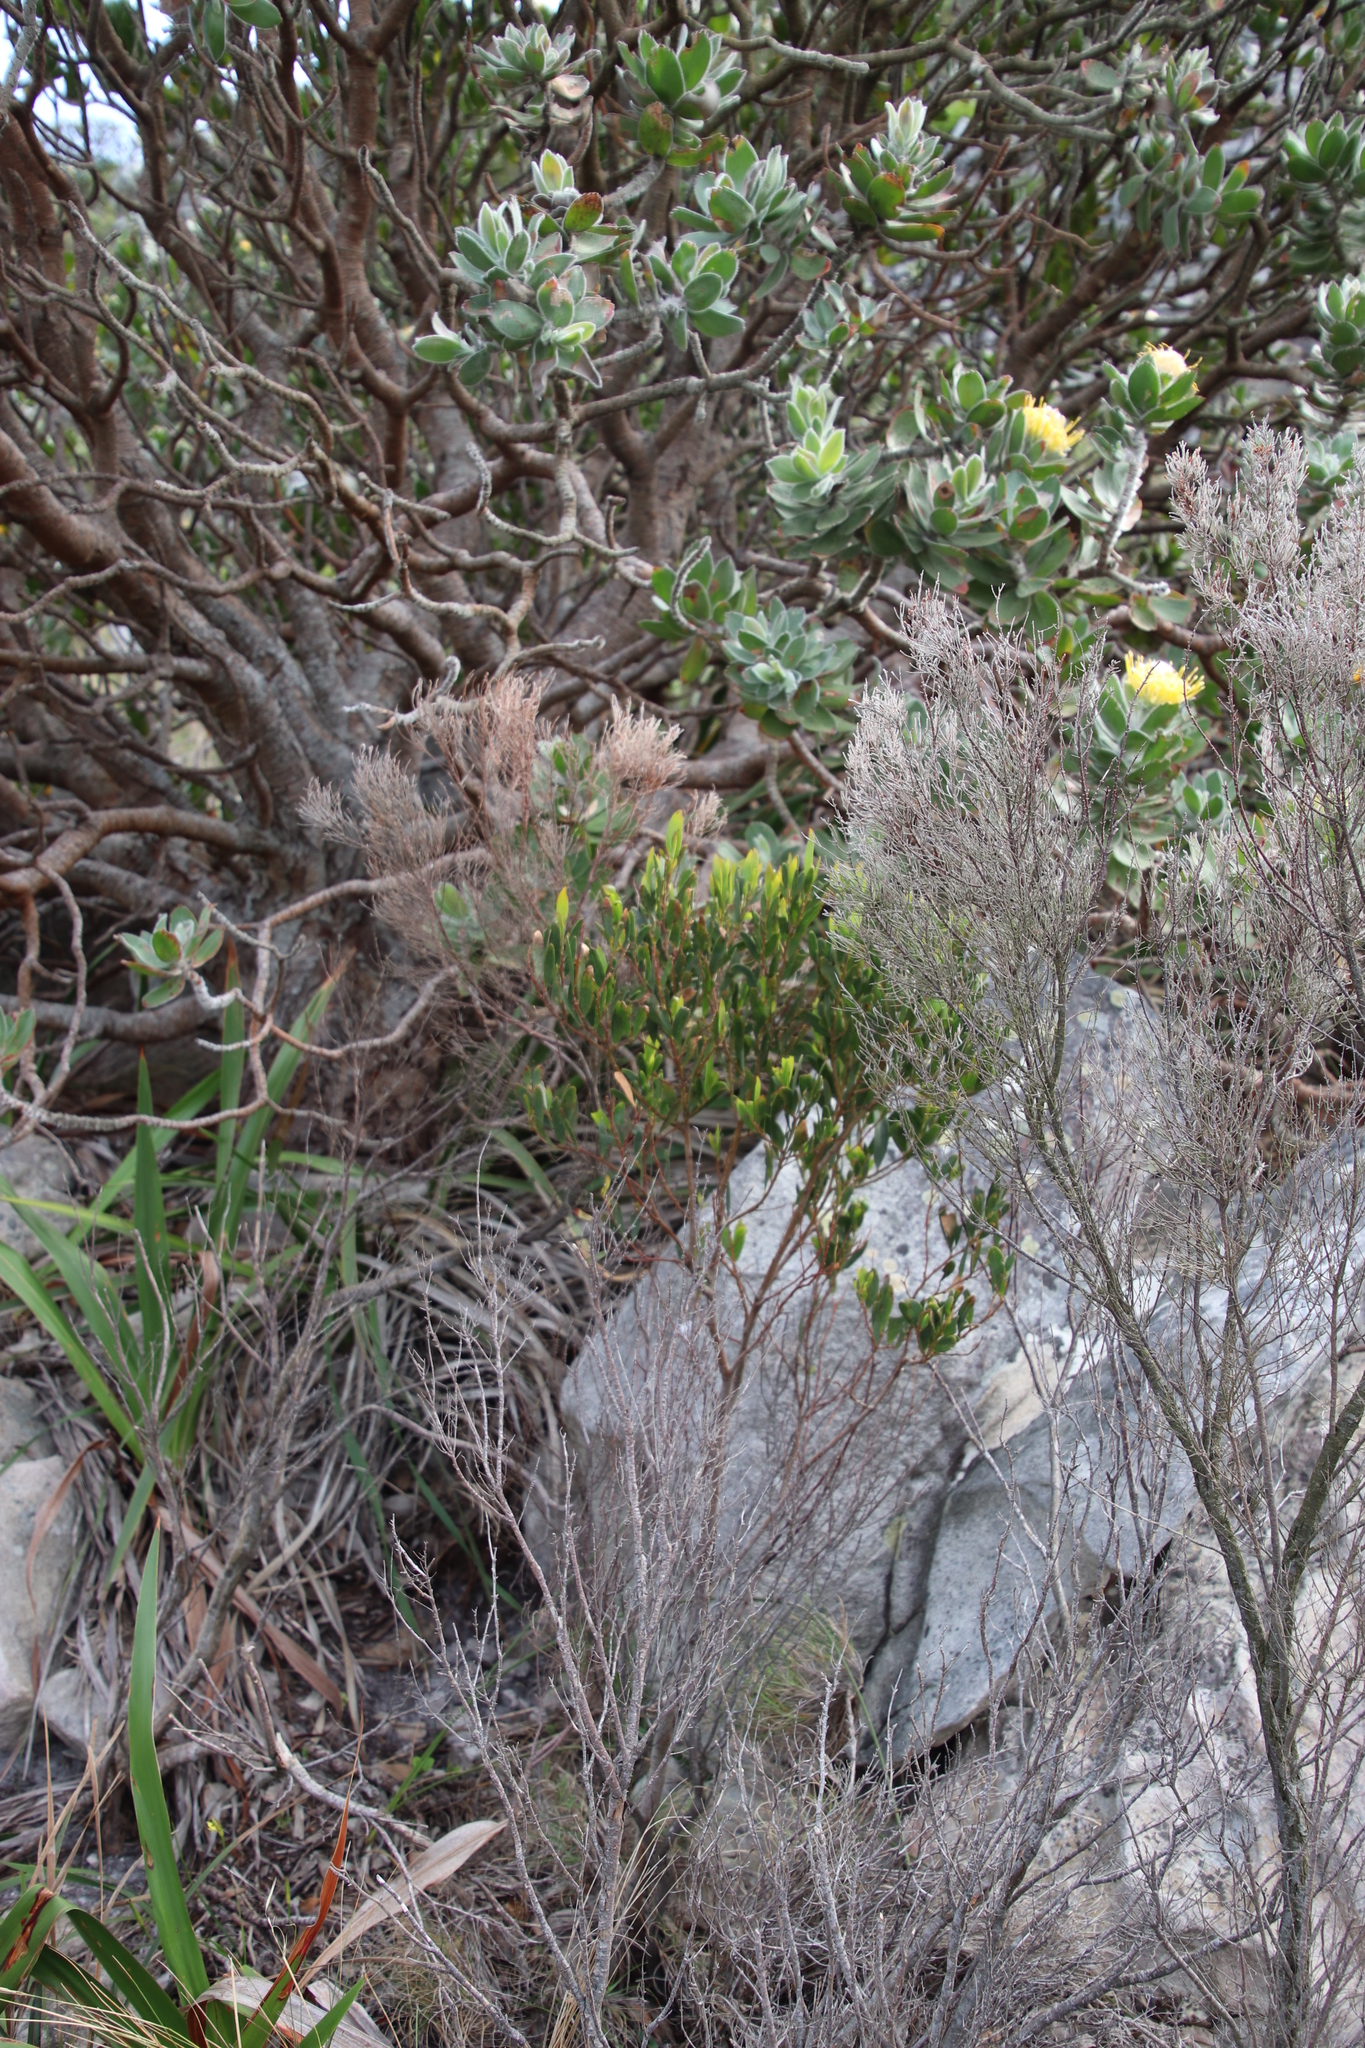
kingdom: Plantae
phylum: Tracheophyta
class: Magnoliopsida
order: Fabales
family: Fabaceae
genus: Acacia
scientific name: Acacia cyclops
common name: Coastal wattle
